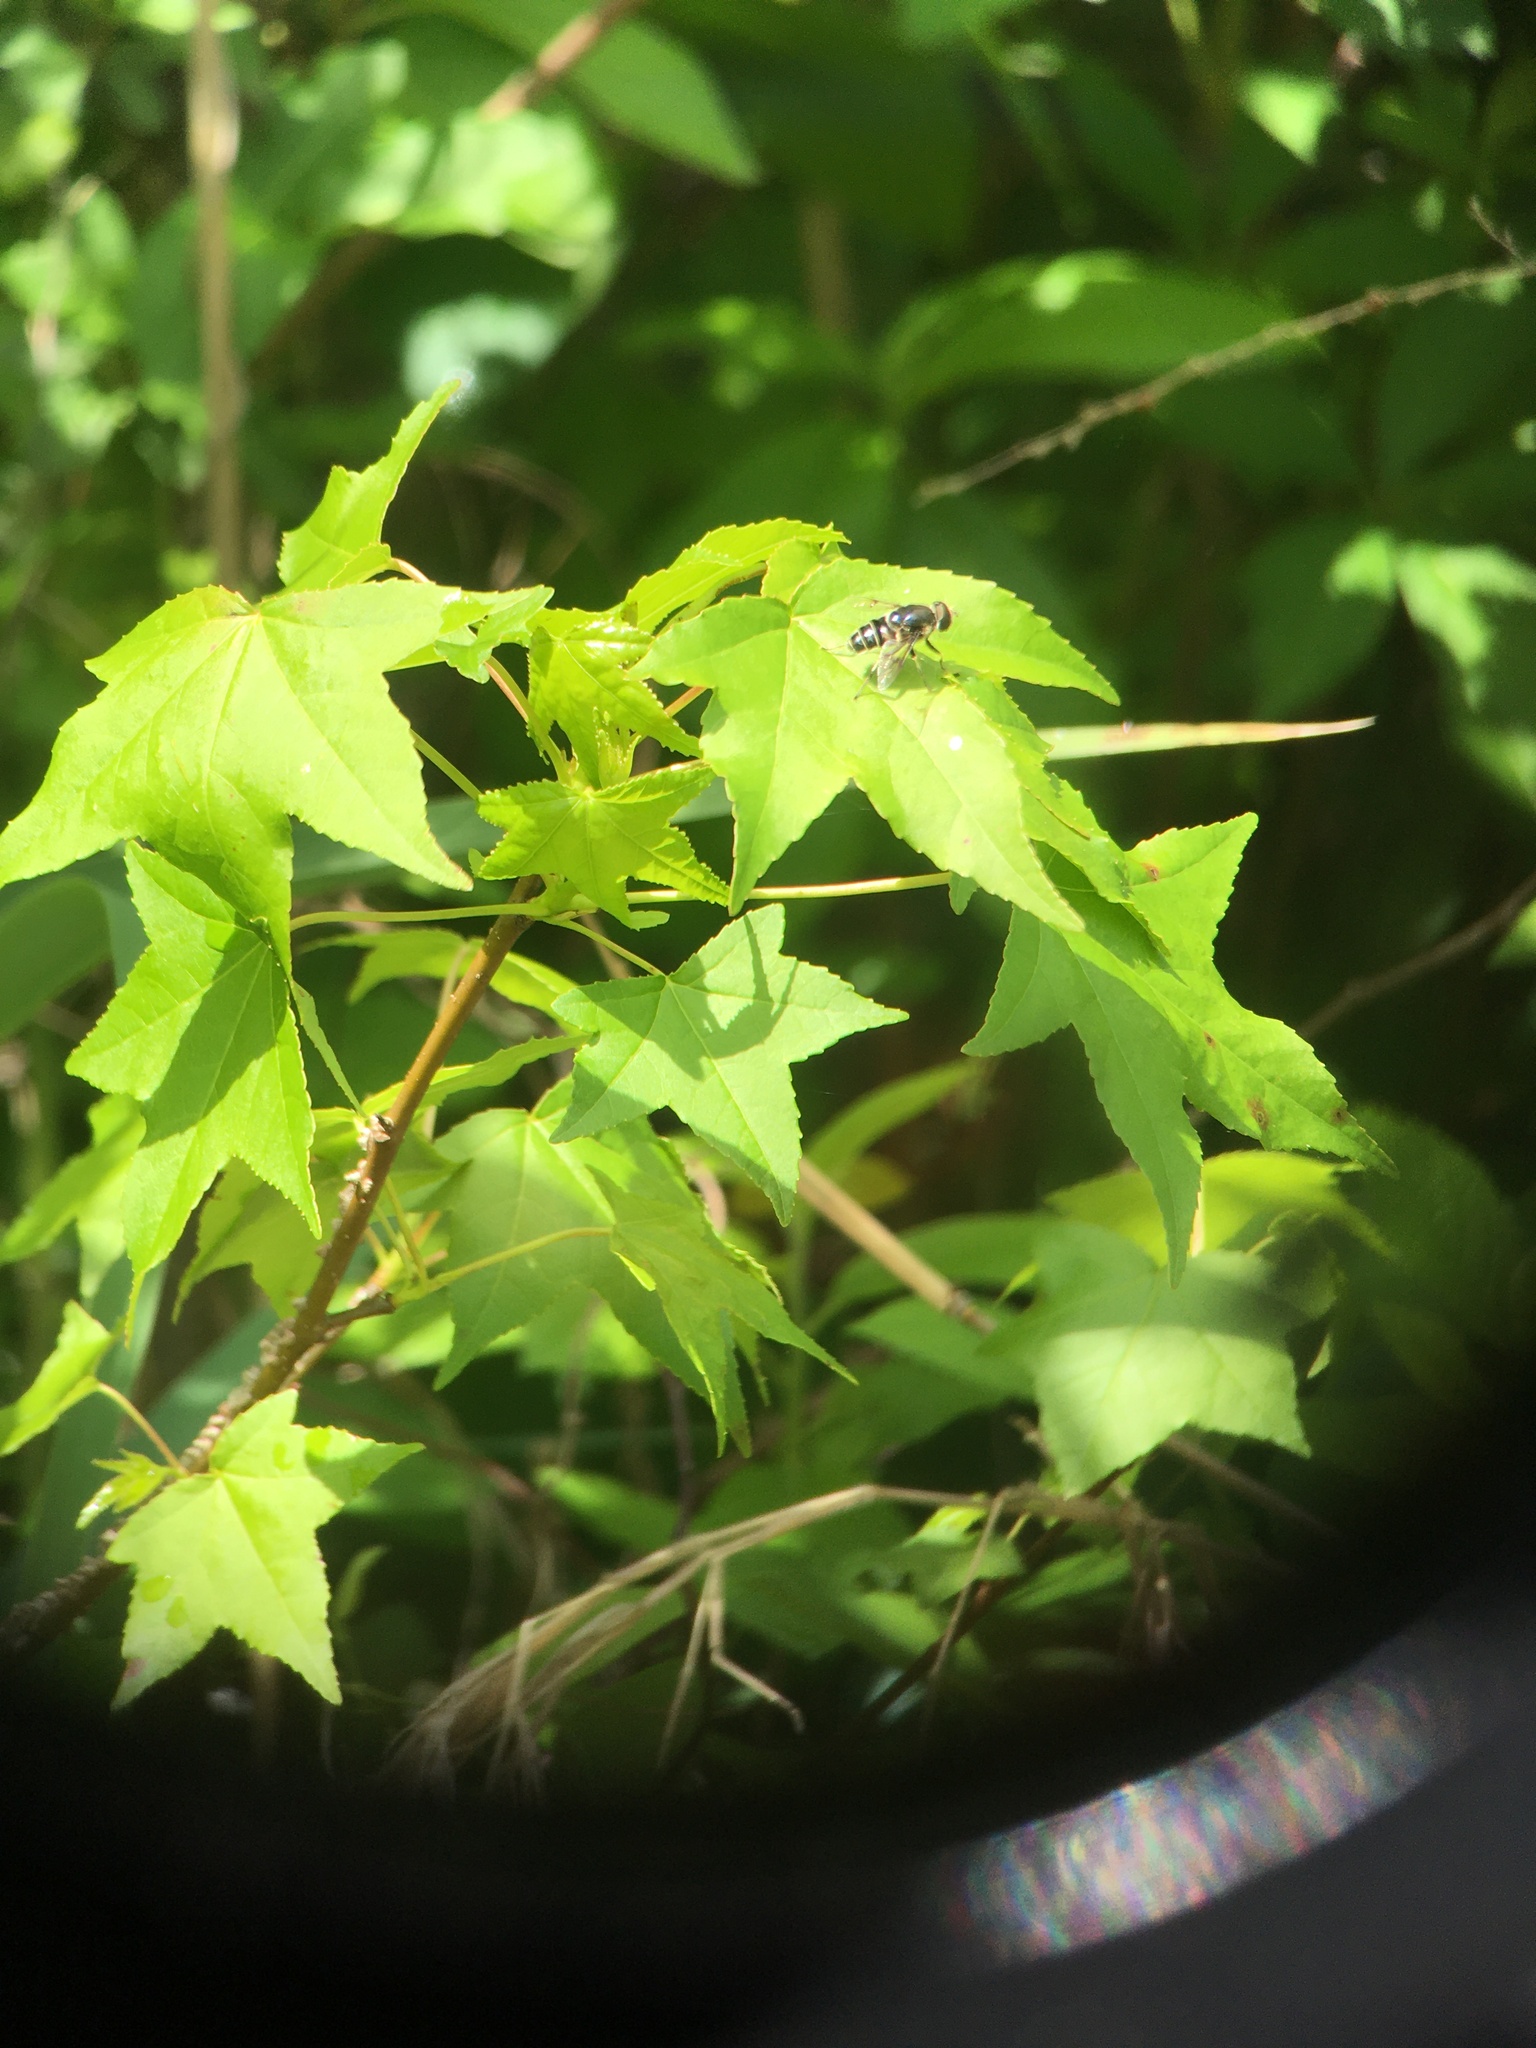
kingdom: Animalia
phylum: Arthropoda
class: Insecta
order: Diptera
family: Syrphidae
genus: Eristalis
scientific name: Eristalis saxorum
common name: Blue-polished drone fly
